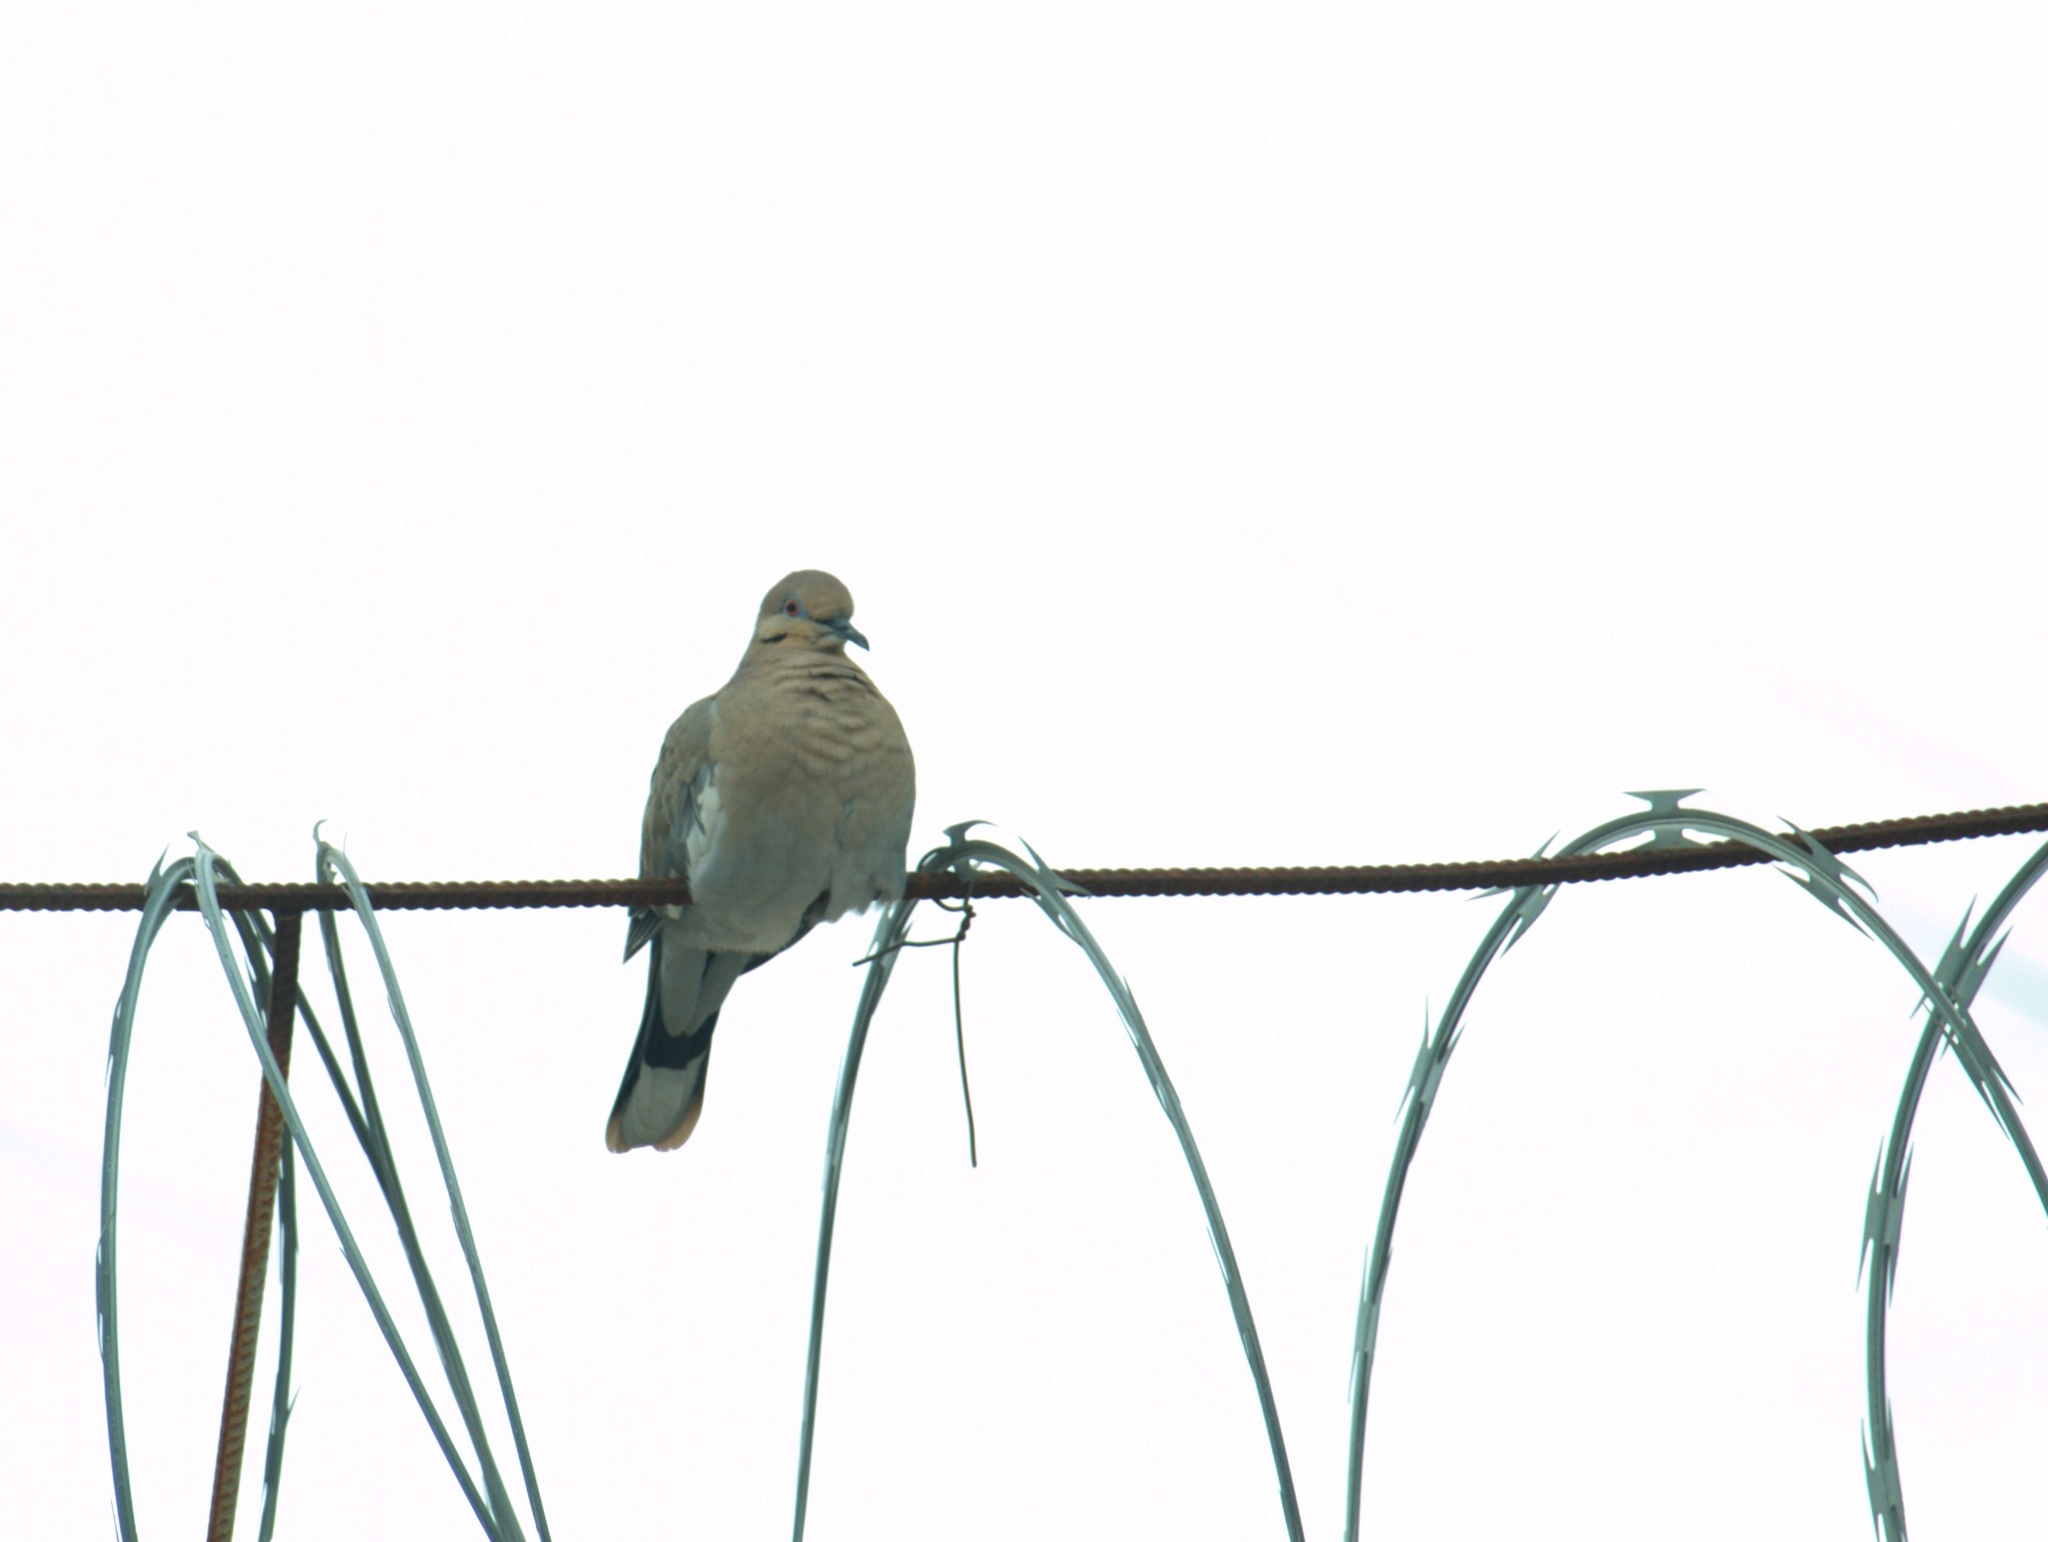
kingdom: Animalia
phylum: Chordata
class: Aves
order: Columbiformes
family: Columbidae
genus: Zenaida
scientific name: Zenaida asiatica
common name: White-winged dove
